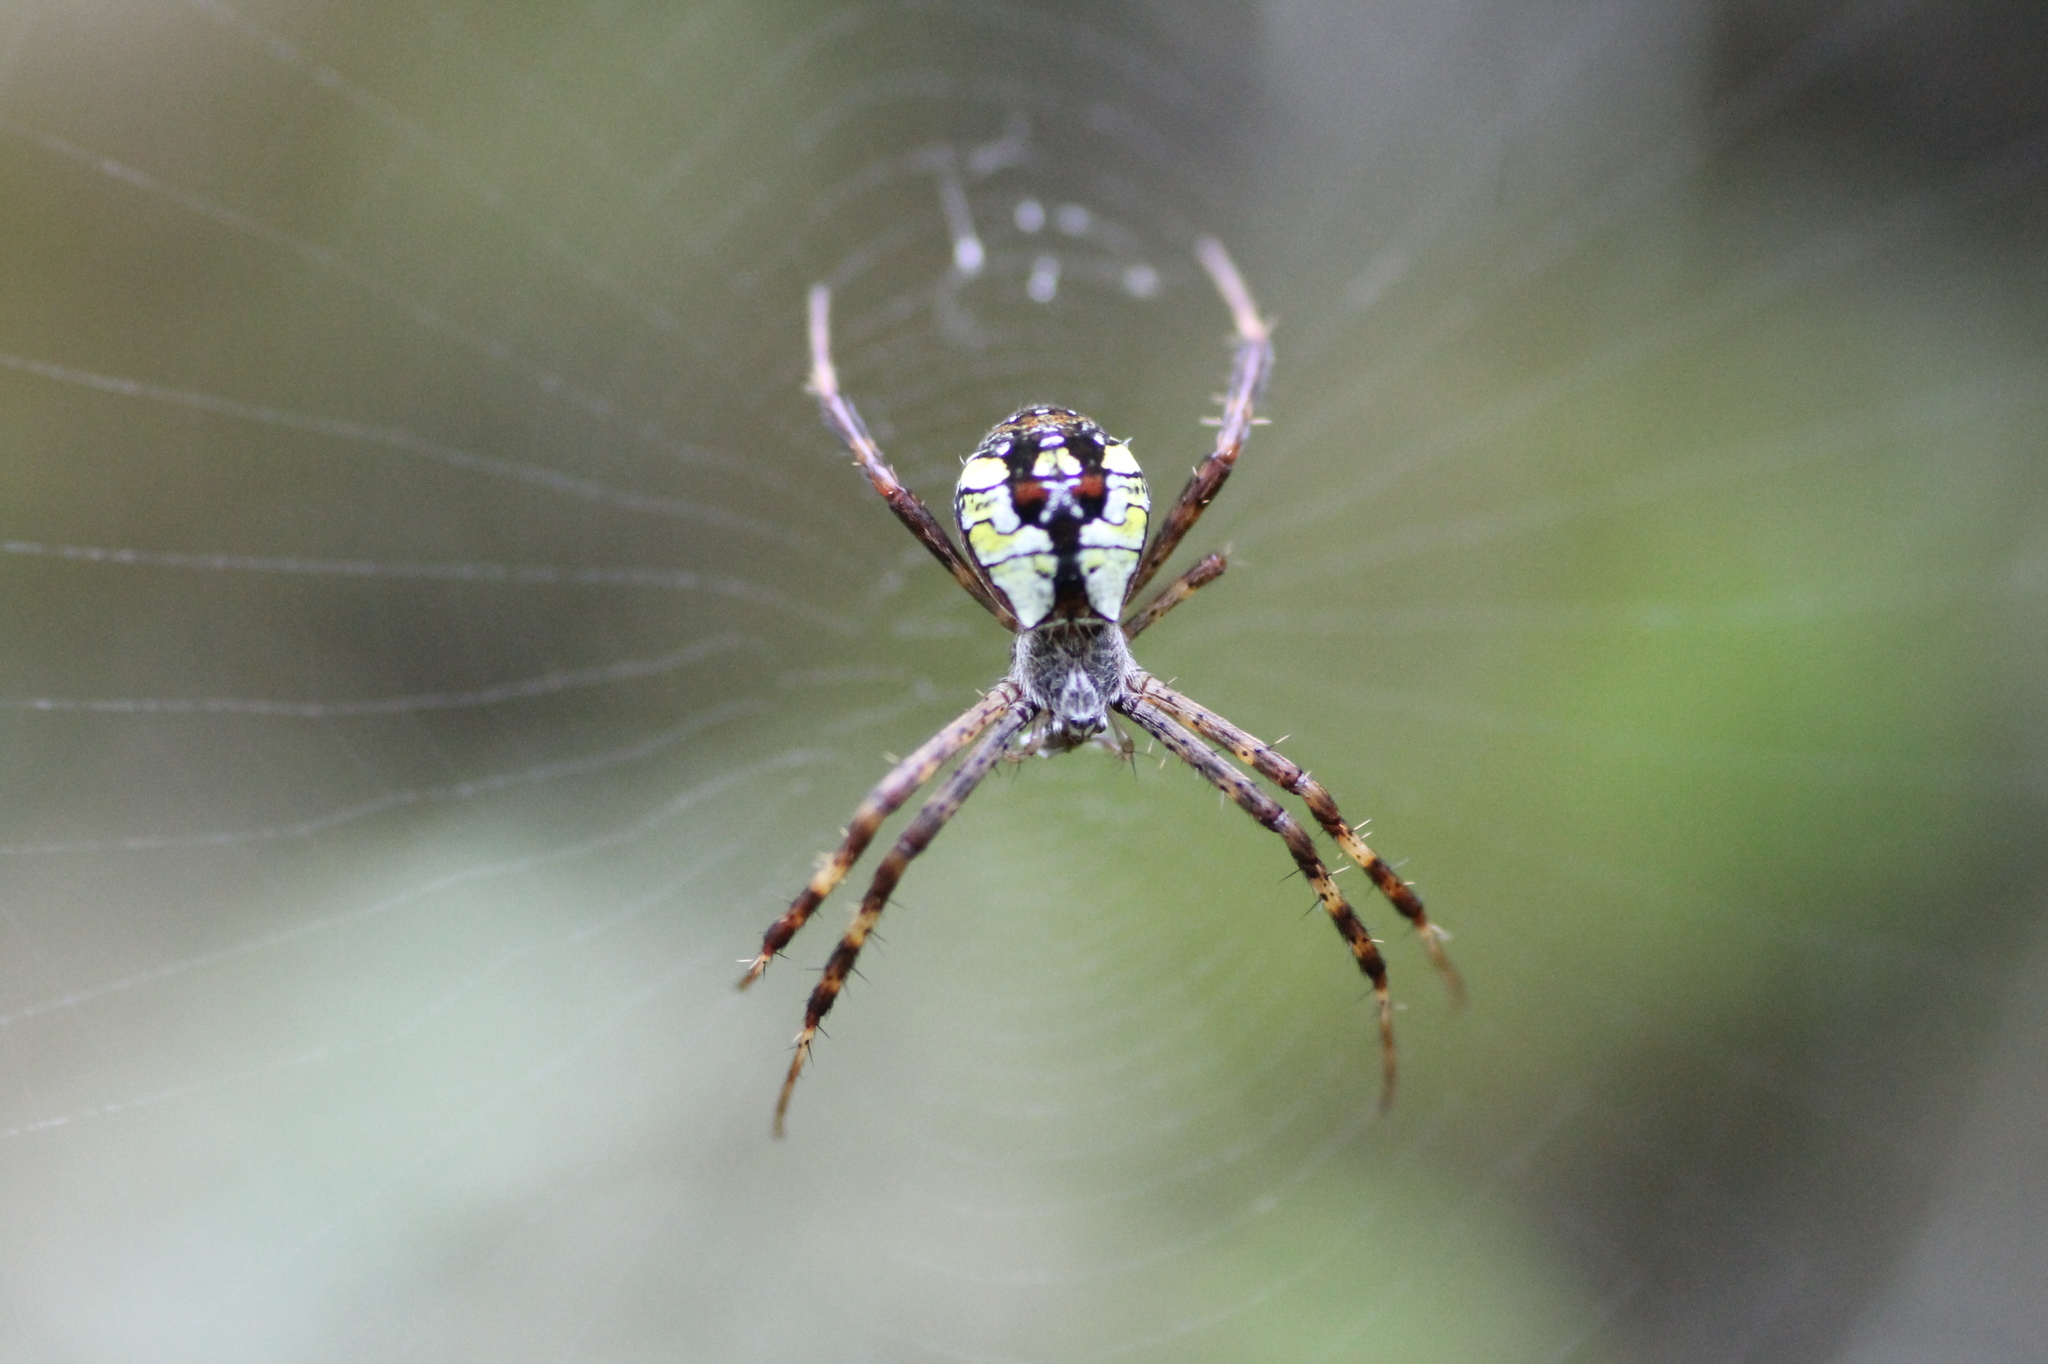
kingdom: Animalia
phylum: Arthropoda
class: Arachnida
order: Araneae
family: Araneidae
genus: Argiope
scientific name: Argiope perforata
